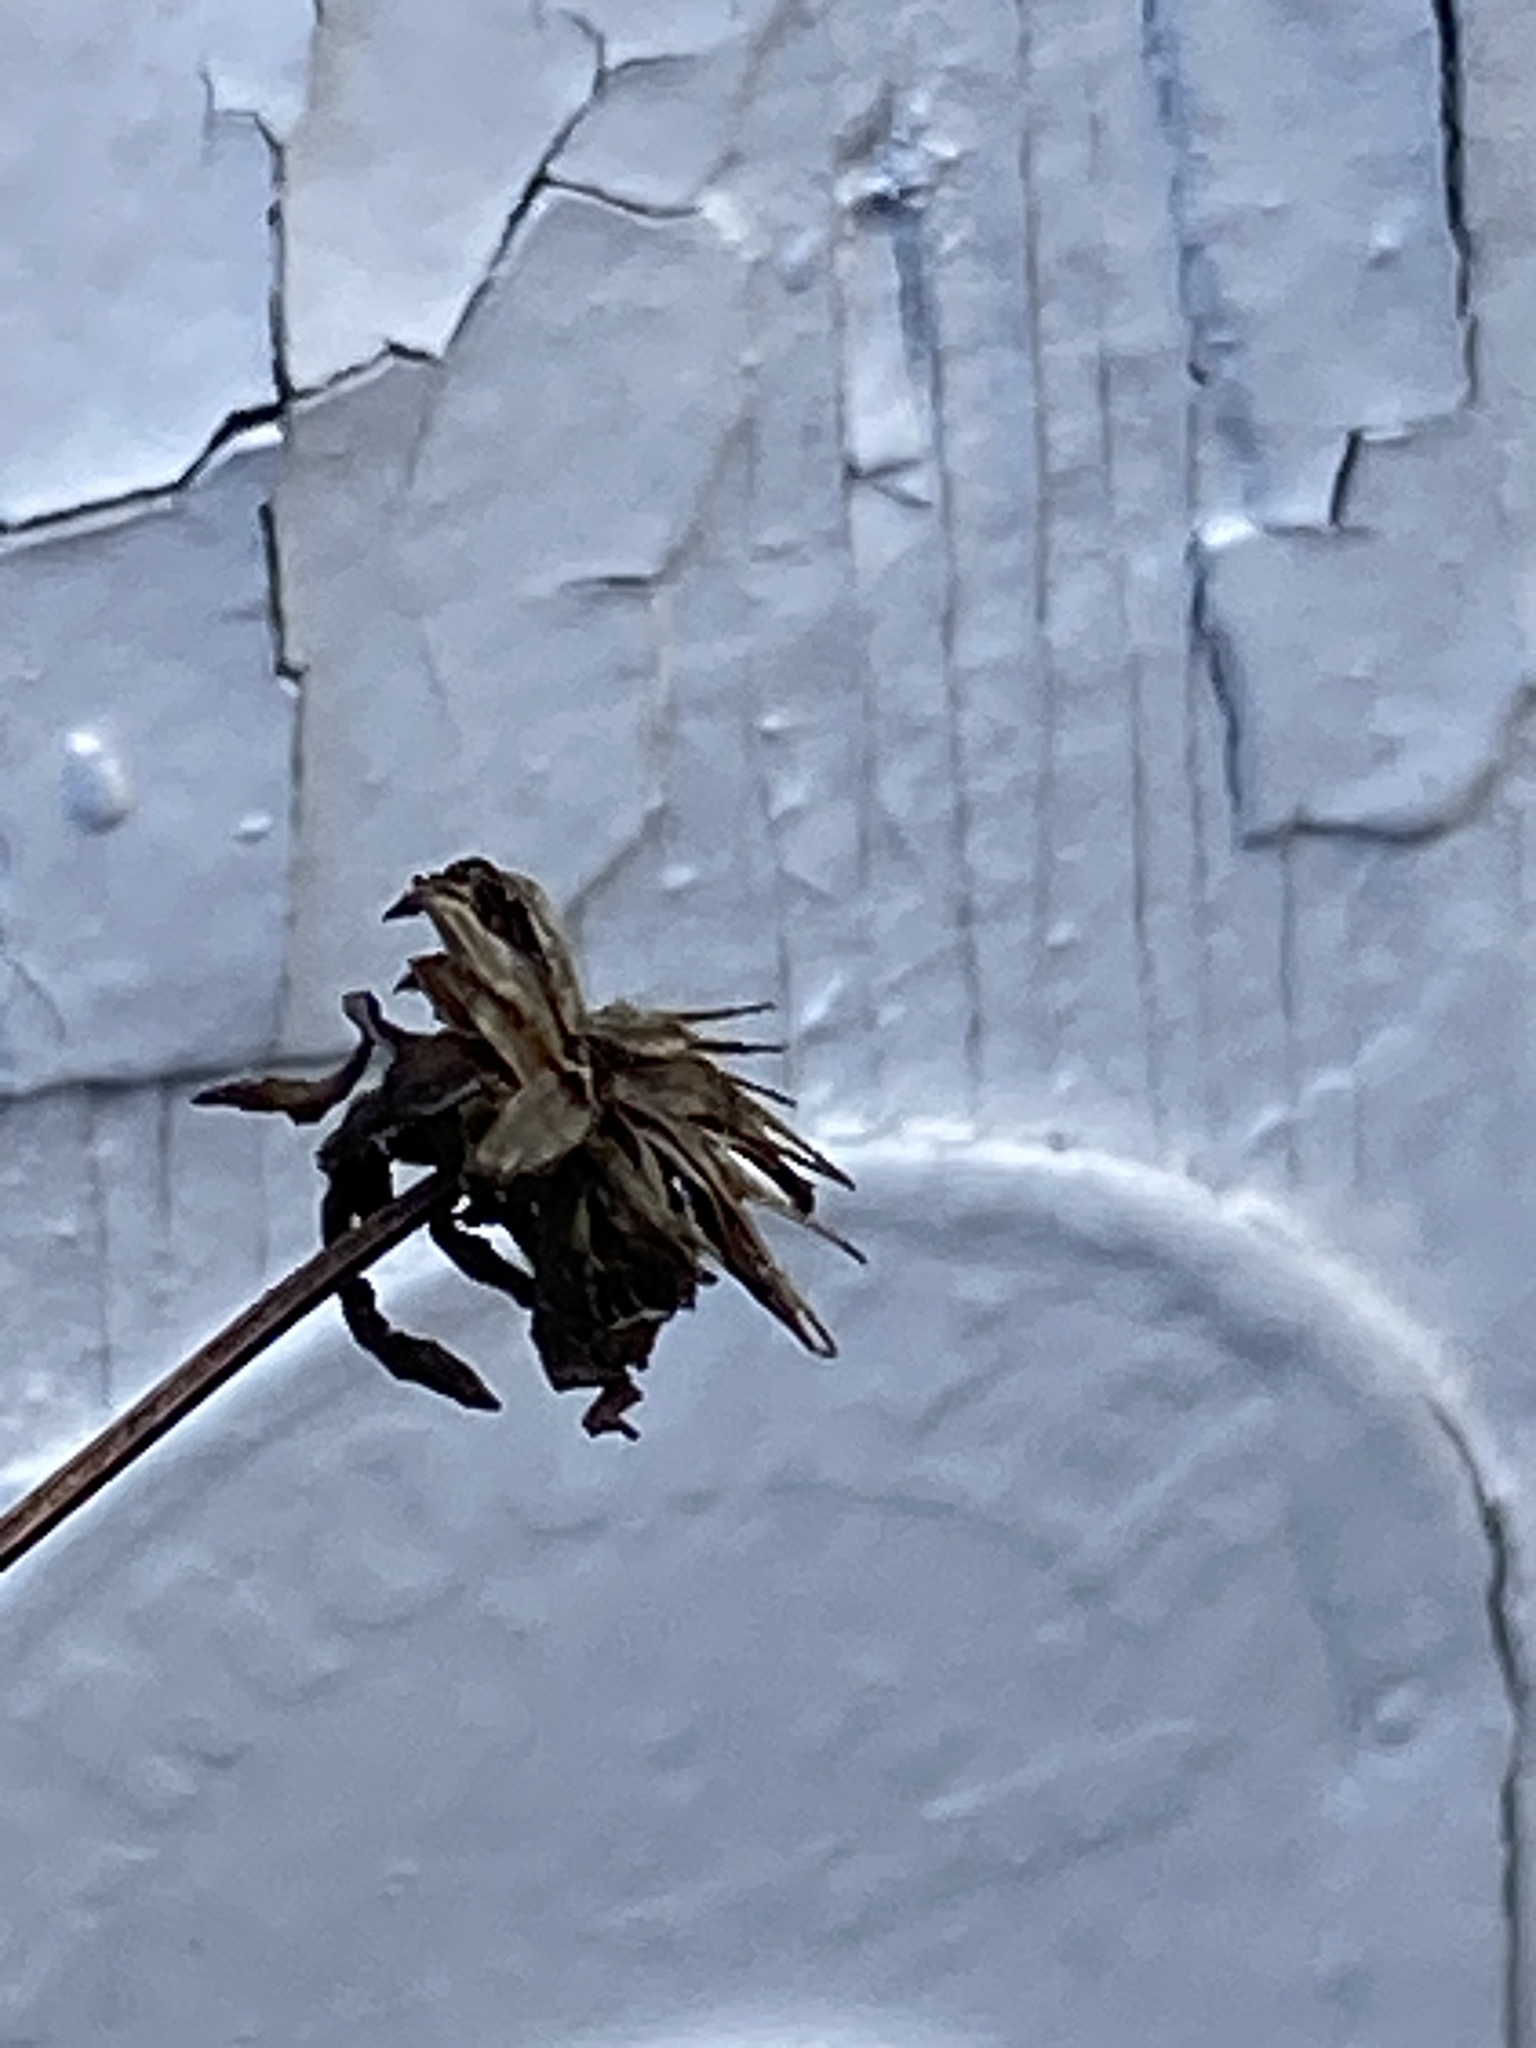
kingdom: Plantae
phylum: Tracheophyta
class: Magnoliopsida
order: Asterales
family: Asteraceae
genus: Bidens
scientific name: Bidens frondosa
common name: Beggarticks
